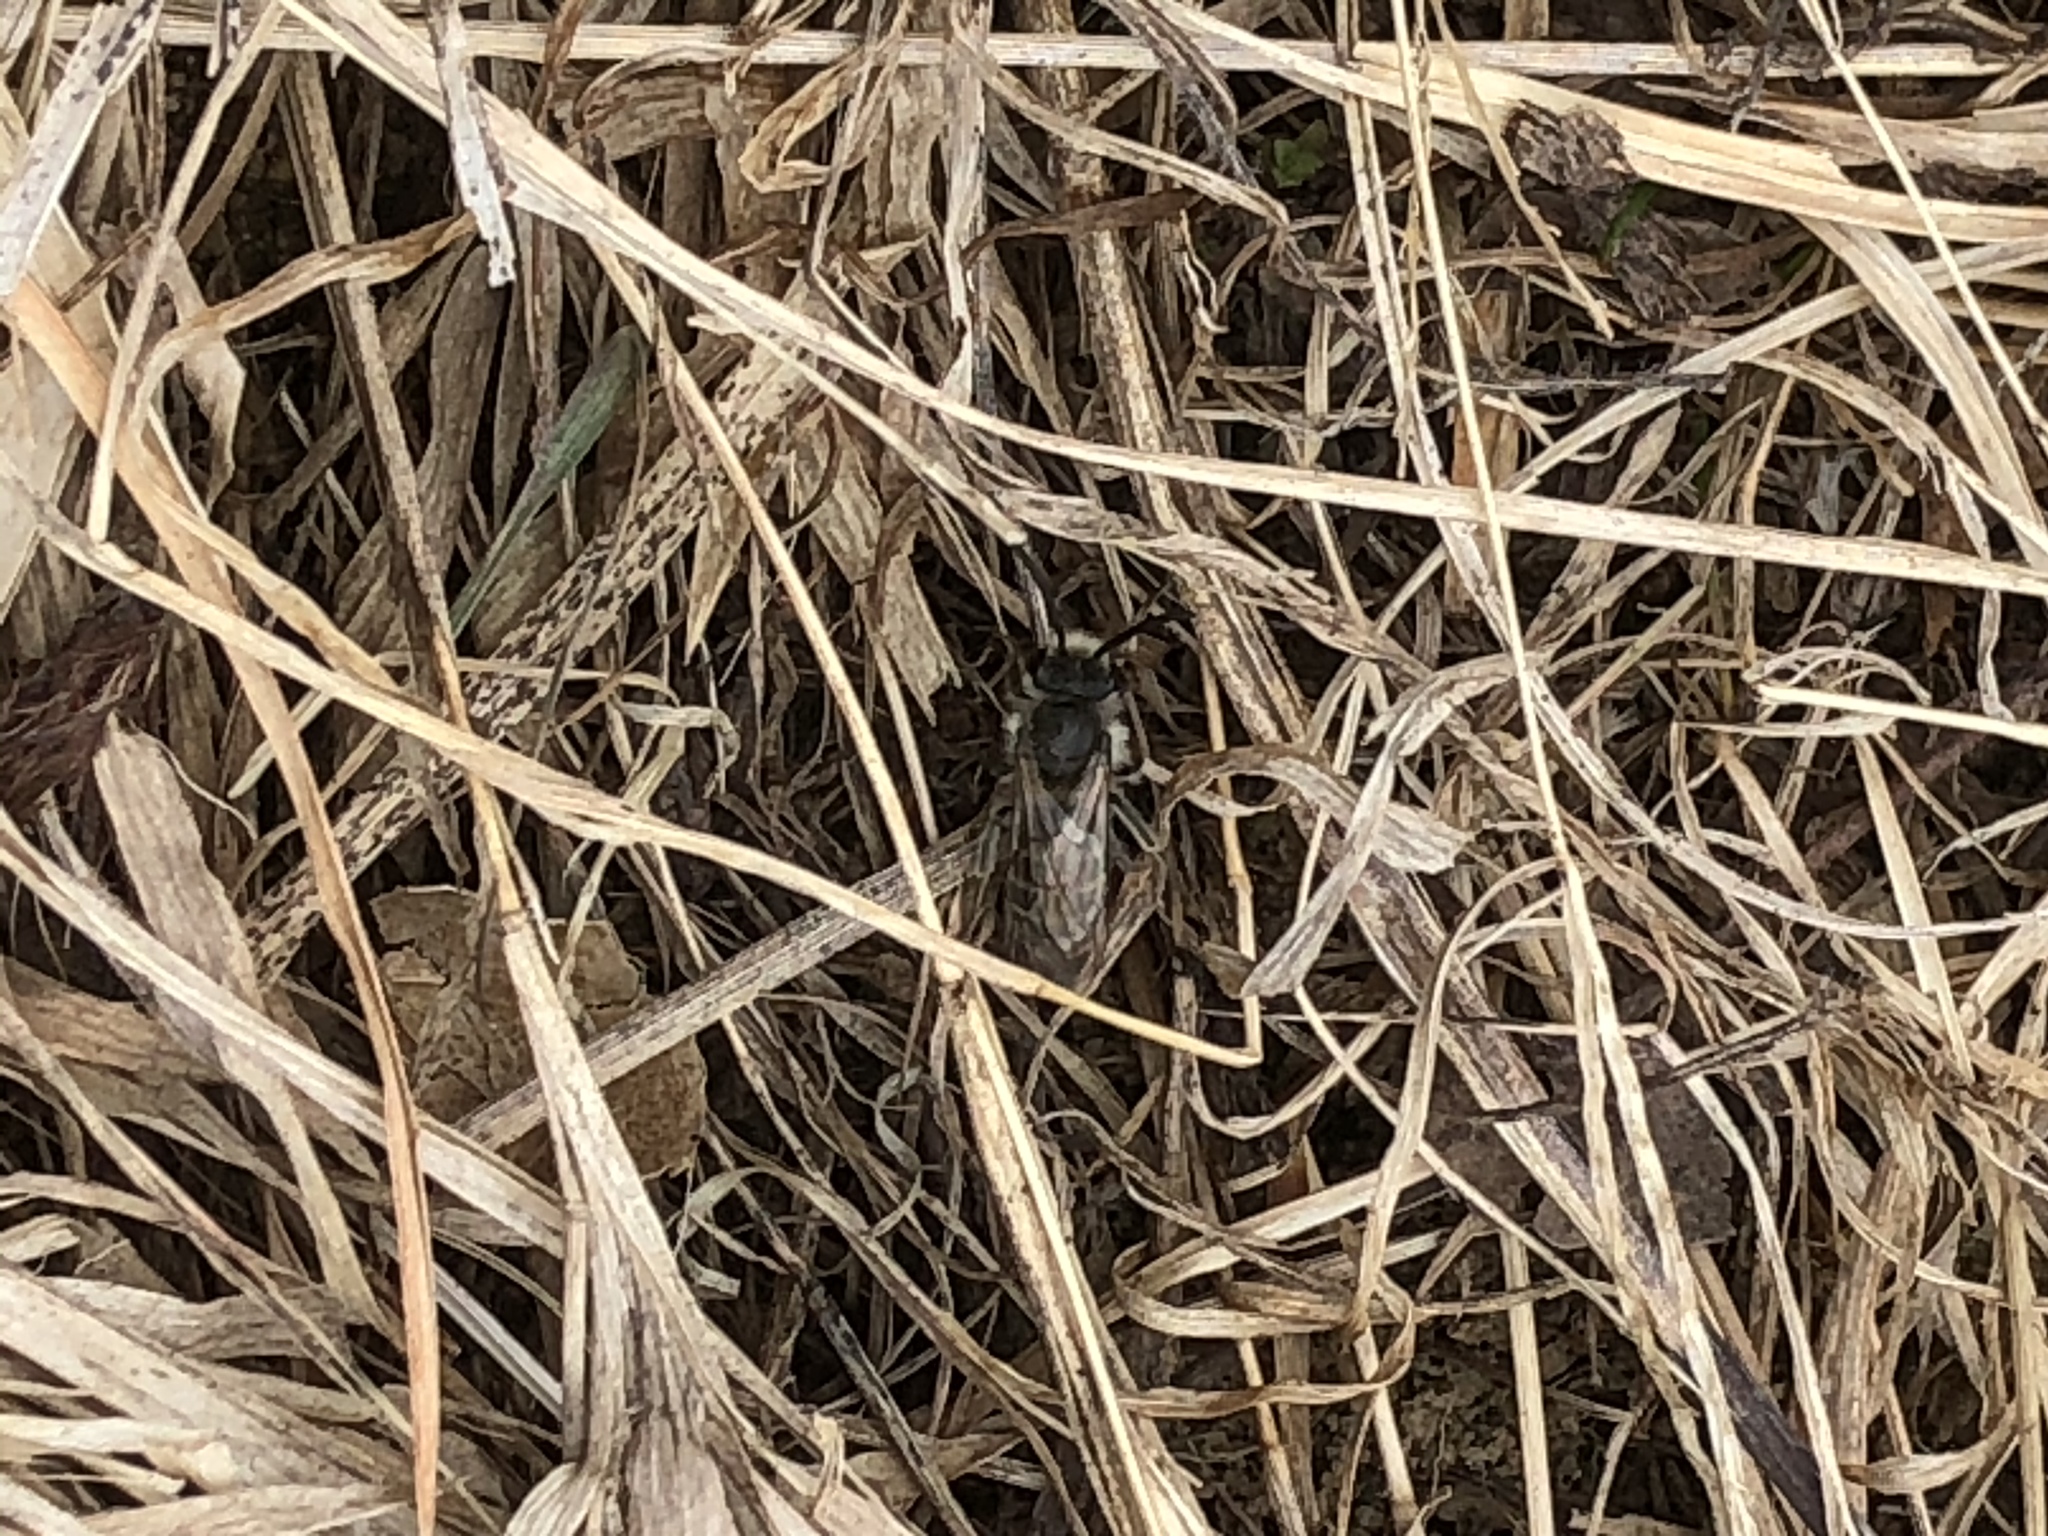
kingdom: Animalia
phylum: Arthropoda
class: Insecta
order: Hymenoptera
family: Colletidae
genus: Colletes
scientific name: Colletes inaequalis
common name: Unequal cellophane bee
